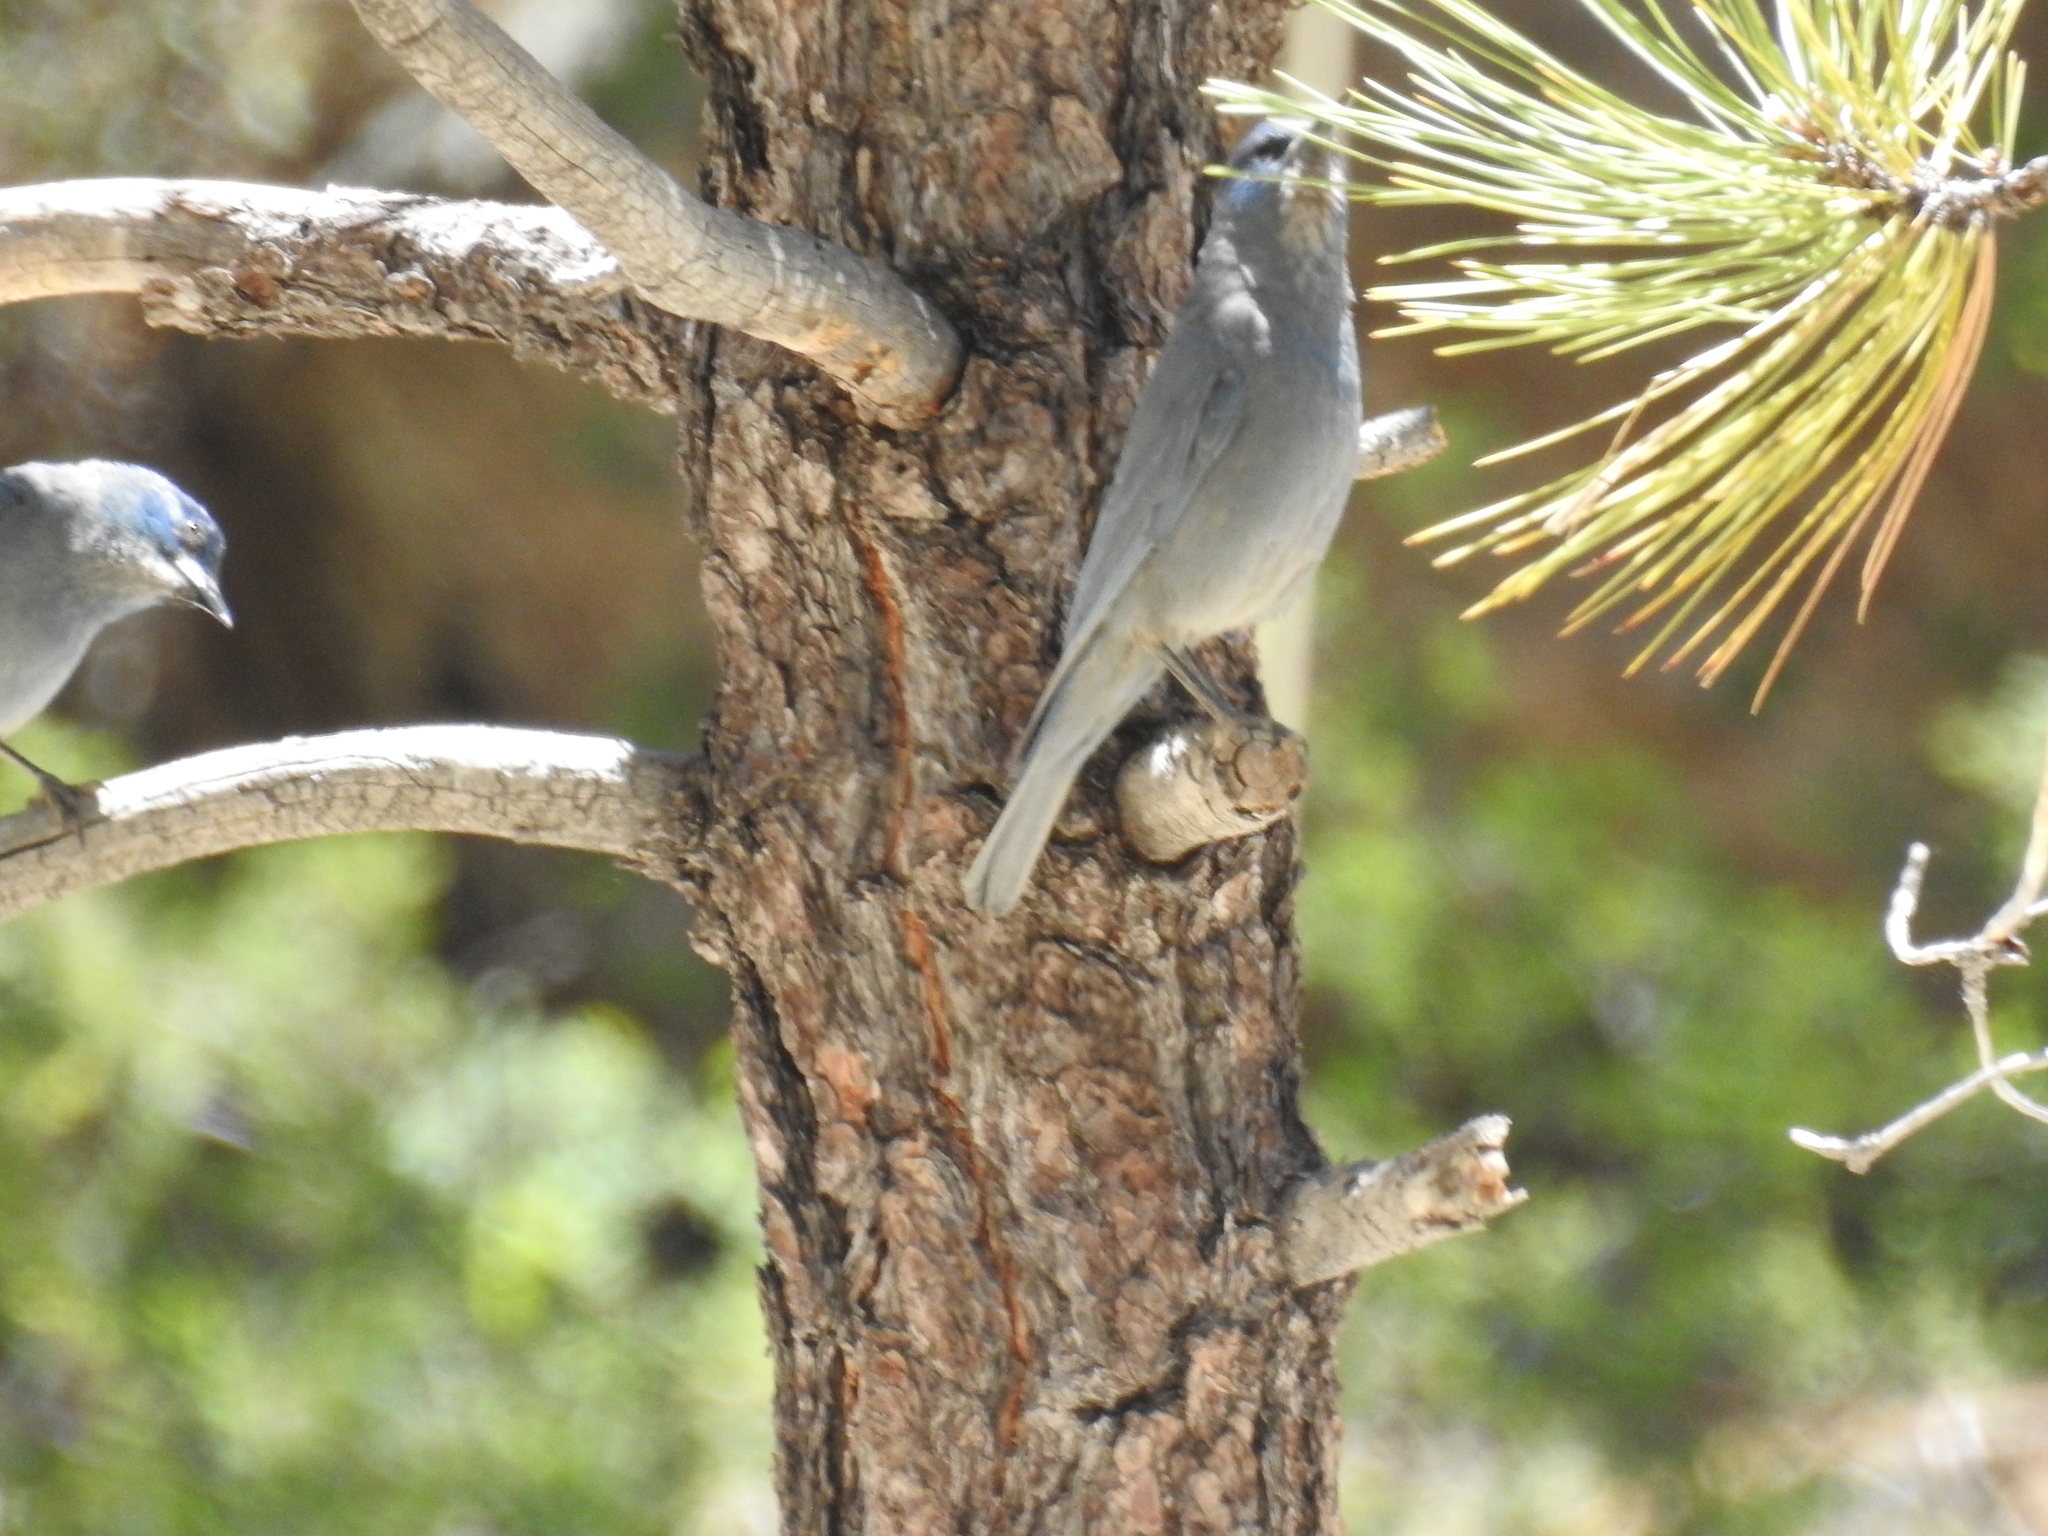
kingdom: Animalia
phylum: Chordata
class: Aves
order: Passeriformes
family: Corvidae
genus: Gymnorhinus
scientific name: Gymnorhinus cyanocephalus
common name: Pinyon jay
